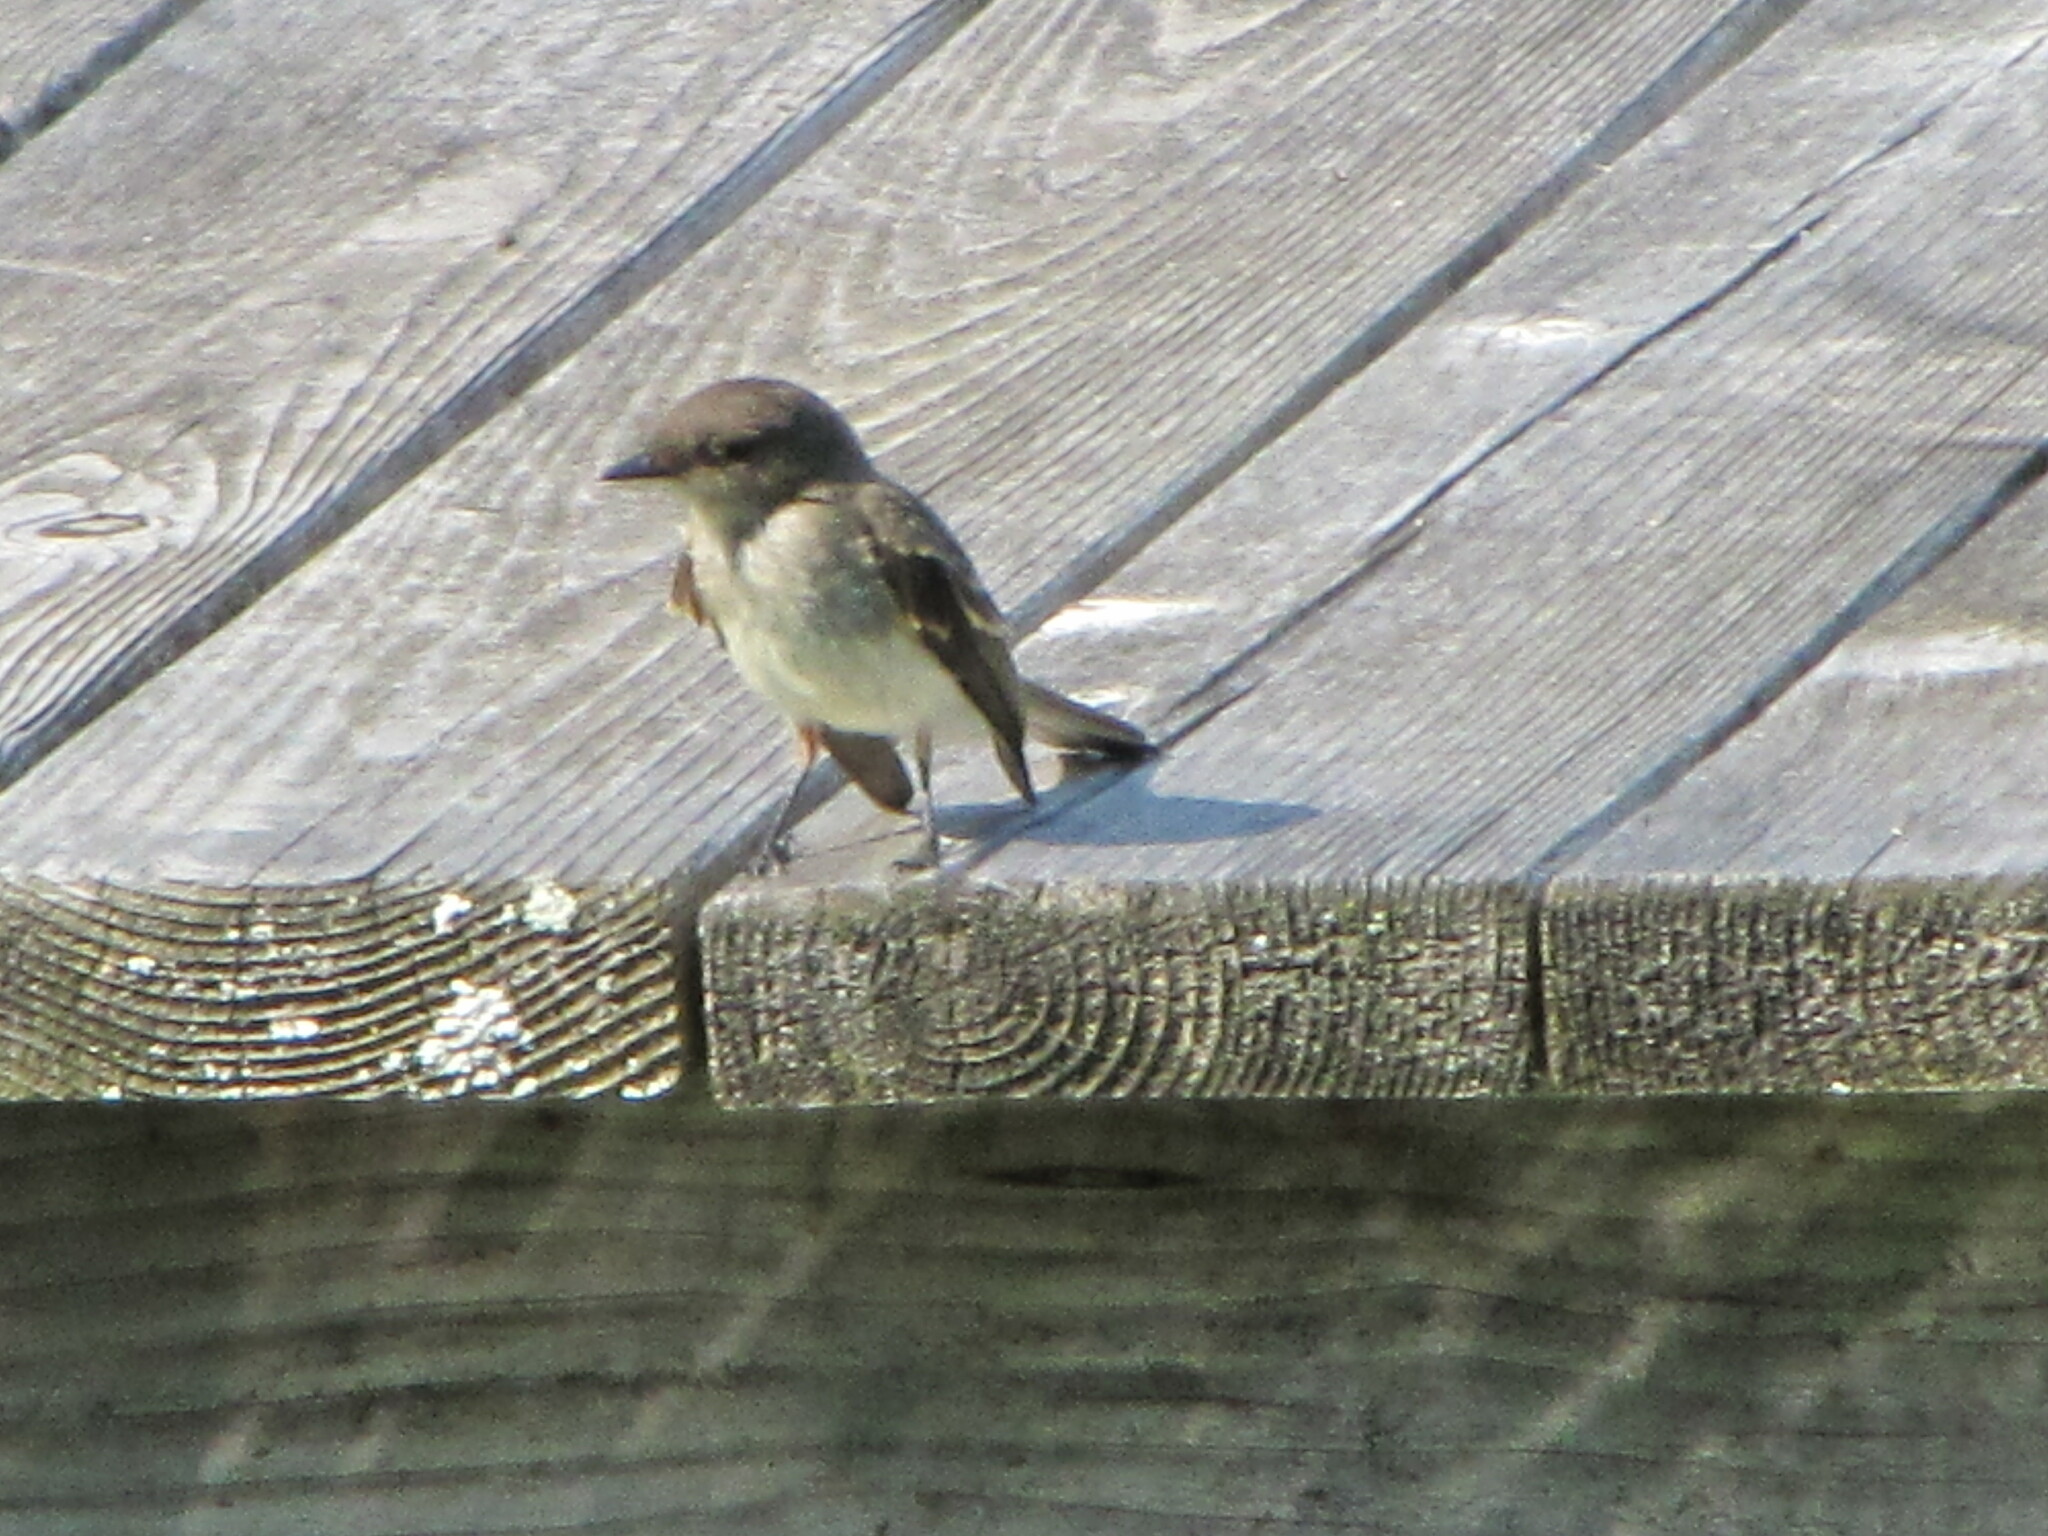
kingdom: Animalia
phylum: Chordata
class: Aves
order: Passeriformes
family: Tyrannidae
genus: Sayornis
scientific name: Sayornis phoebe
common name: Eastern phoebe
